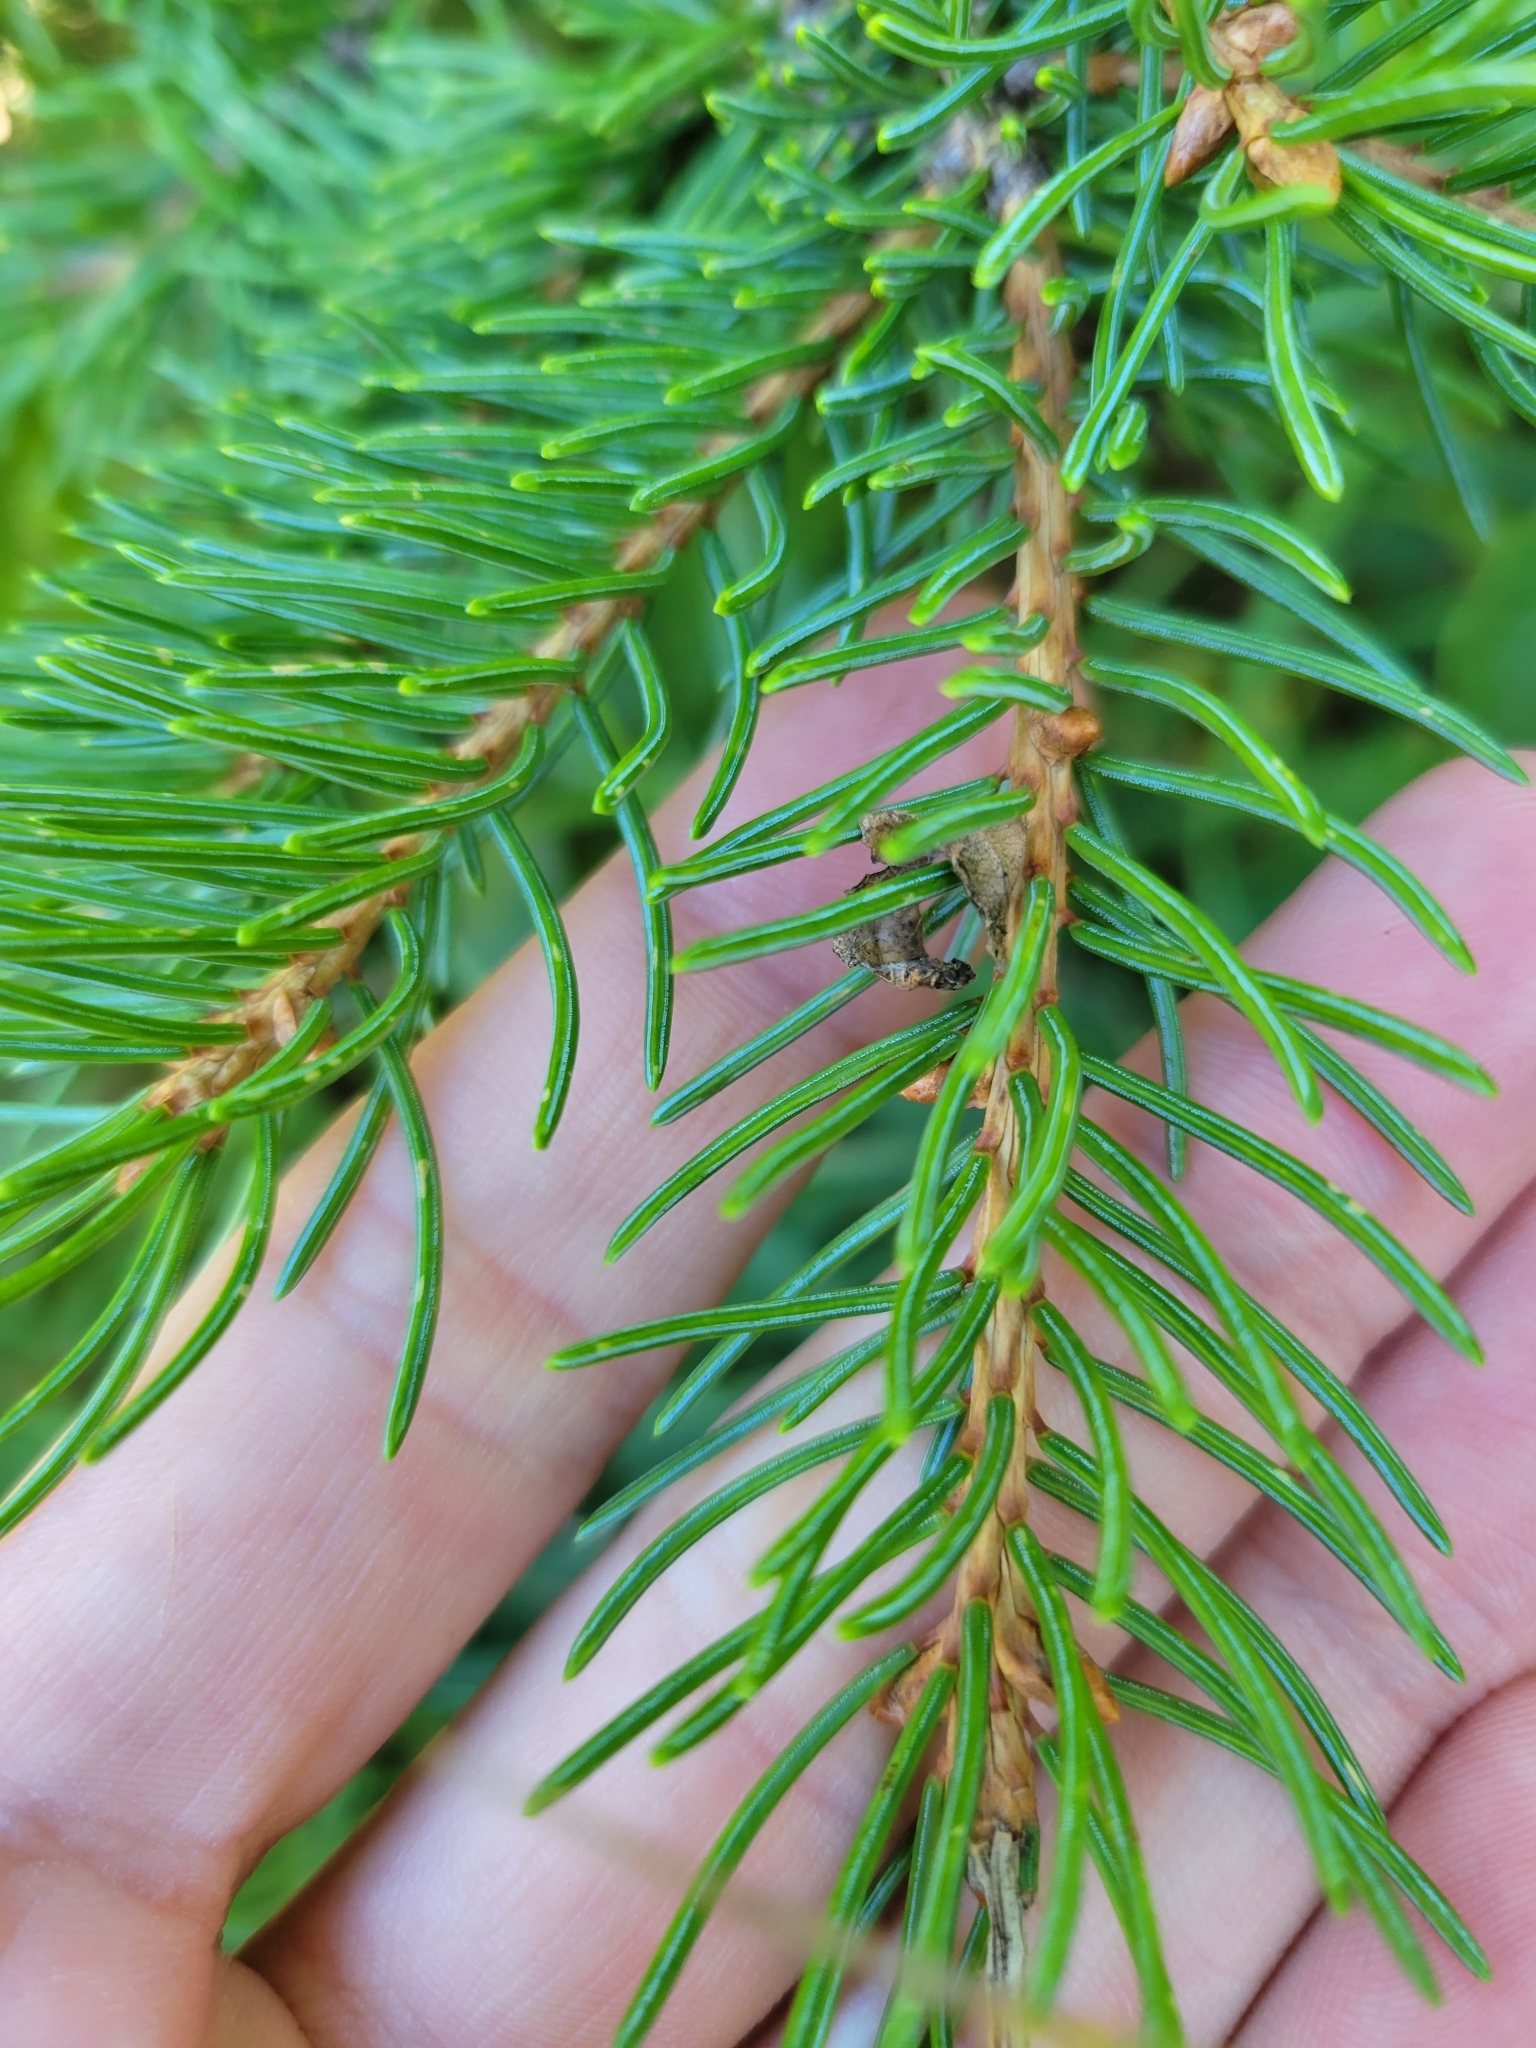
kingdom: Plantae
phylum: Tracheophyta
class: Pinopsida
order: Pinales
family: Pinaceae
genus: Picea
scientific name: Picea glauca
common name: White spruce
